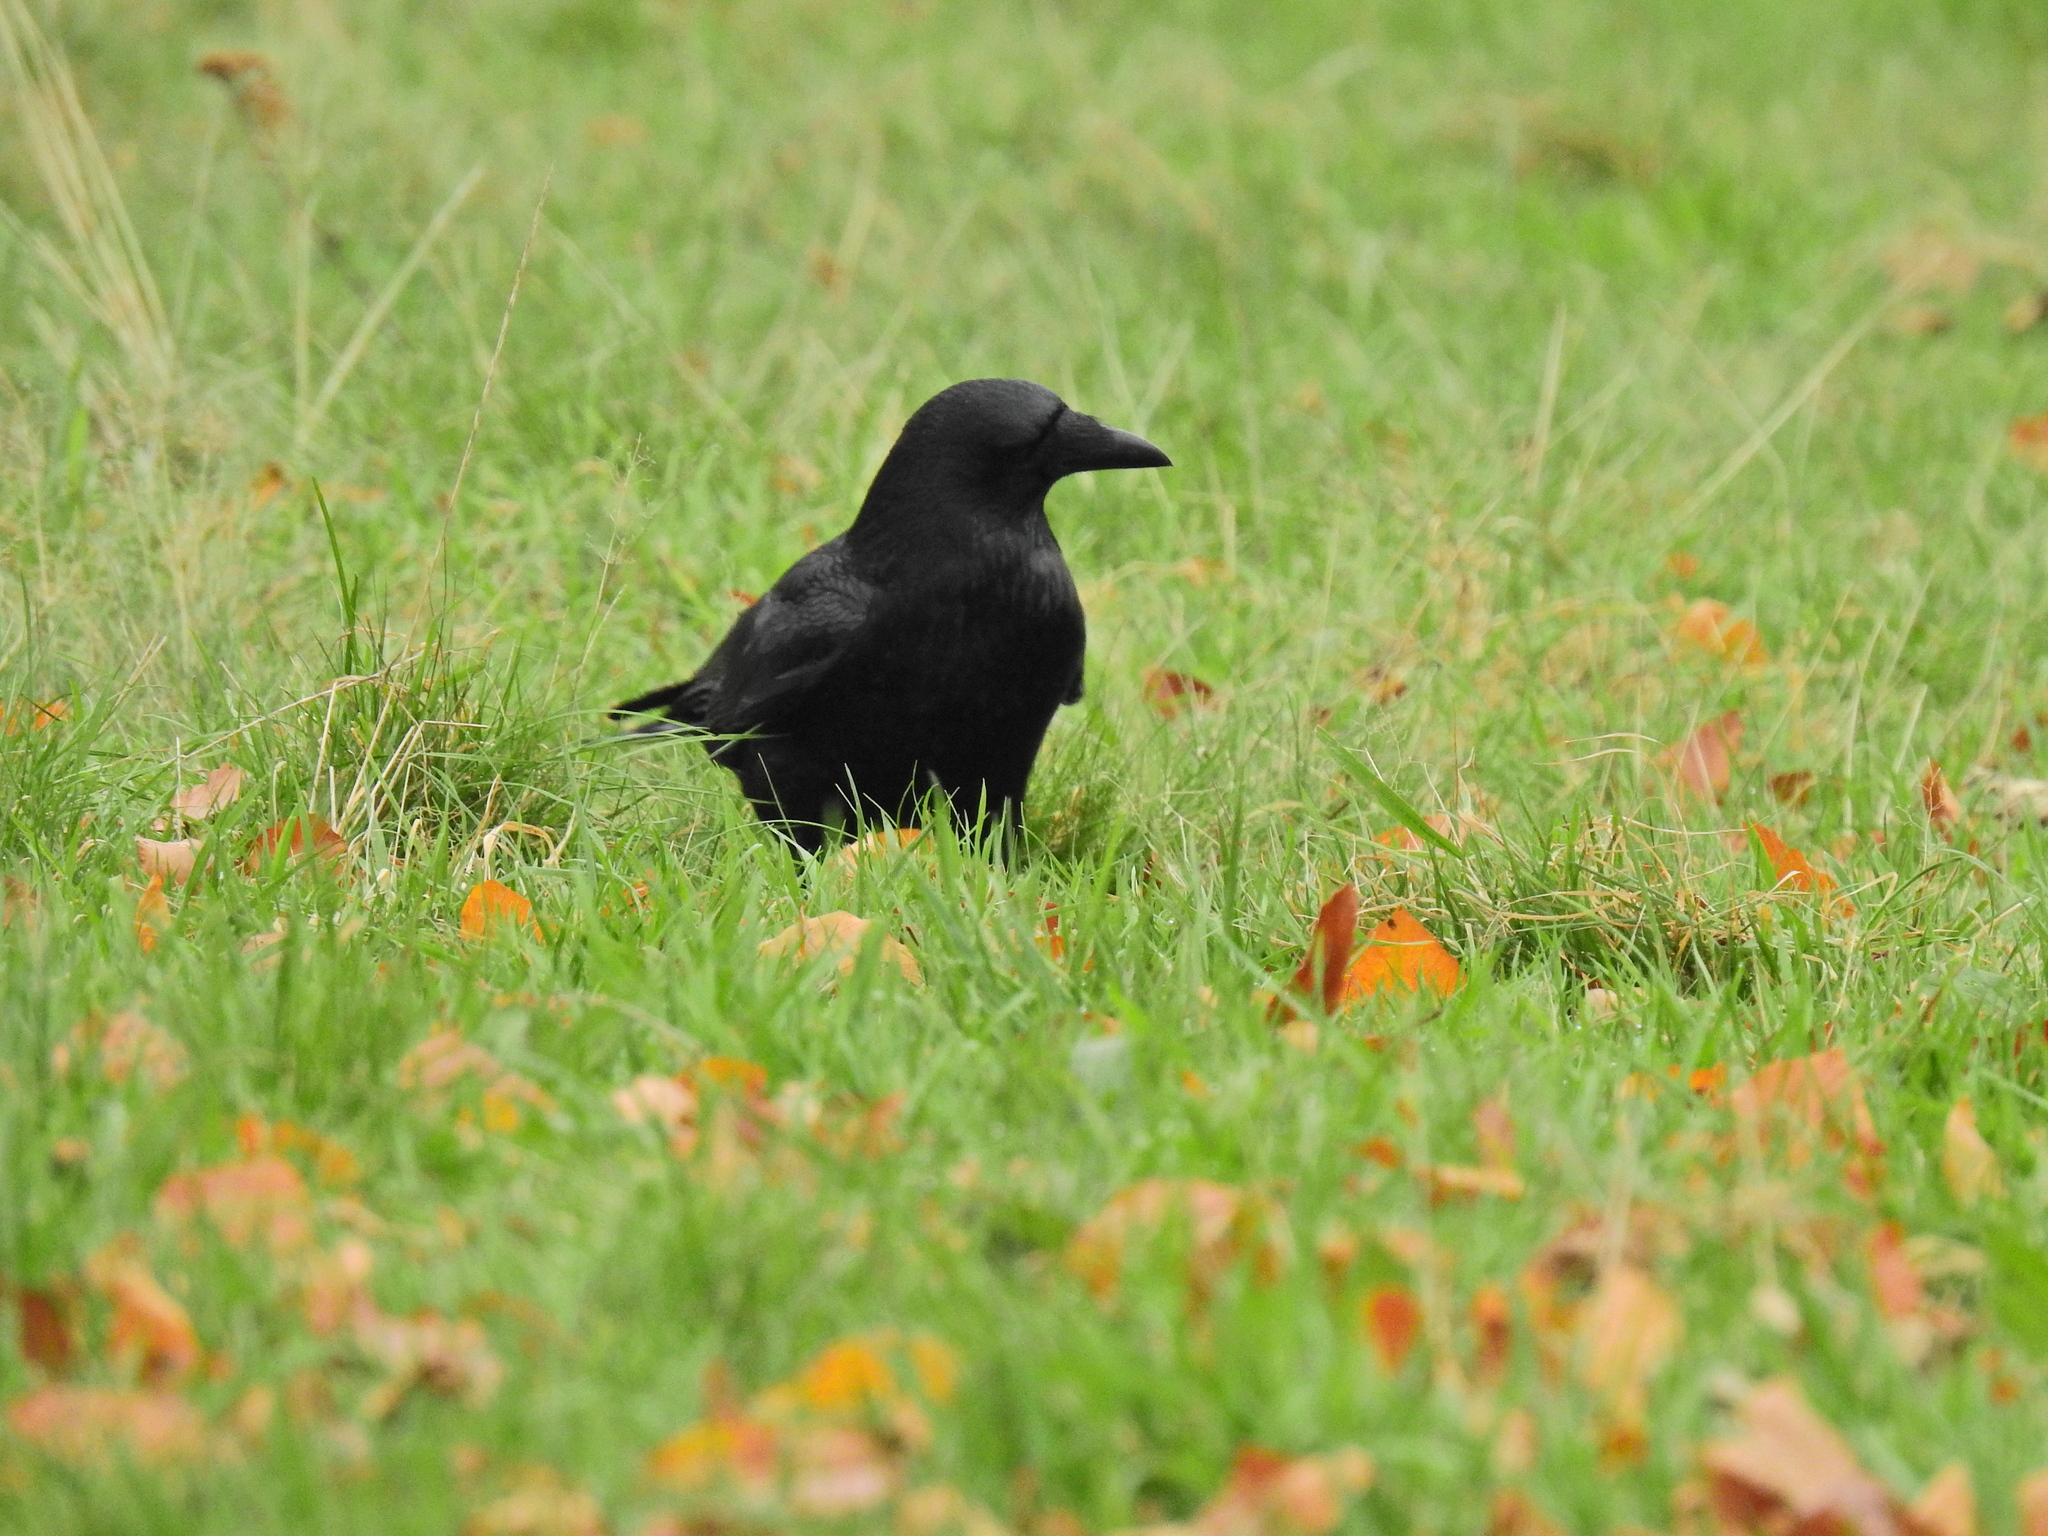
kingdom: Animalia
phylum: Chordata
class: Aves
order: Passeriformes
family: Corvidae
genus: Corvus
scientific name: Corvus corone
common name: Carrion crow
